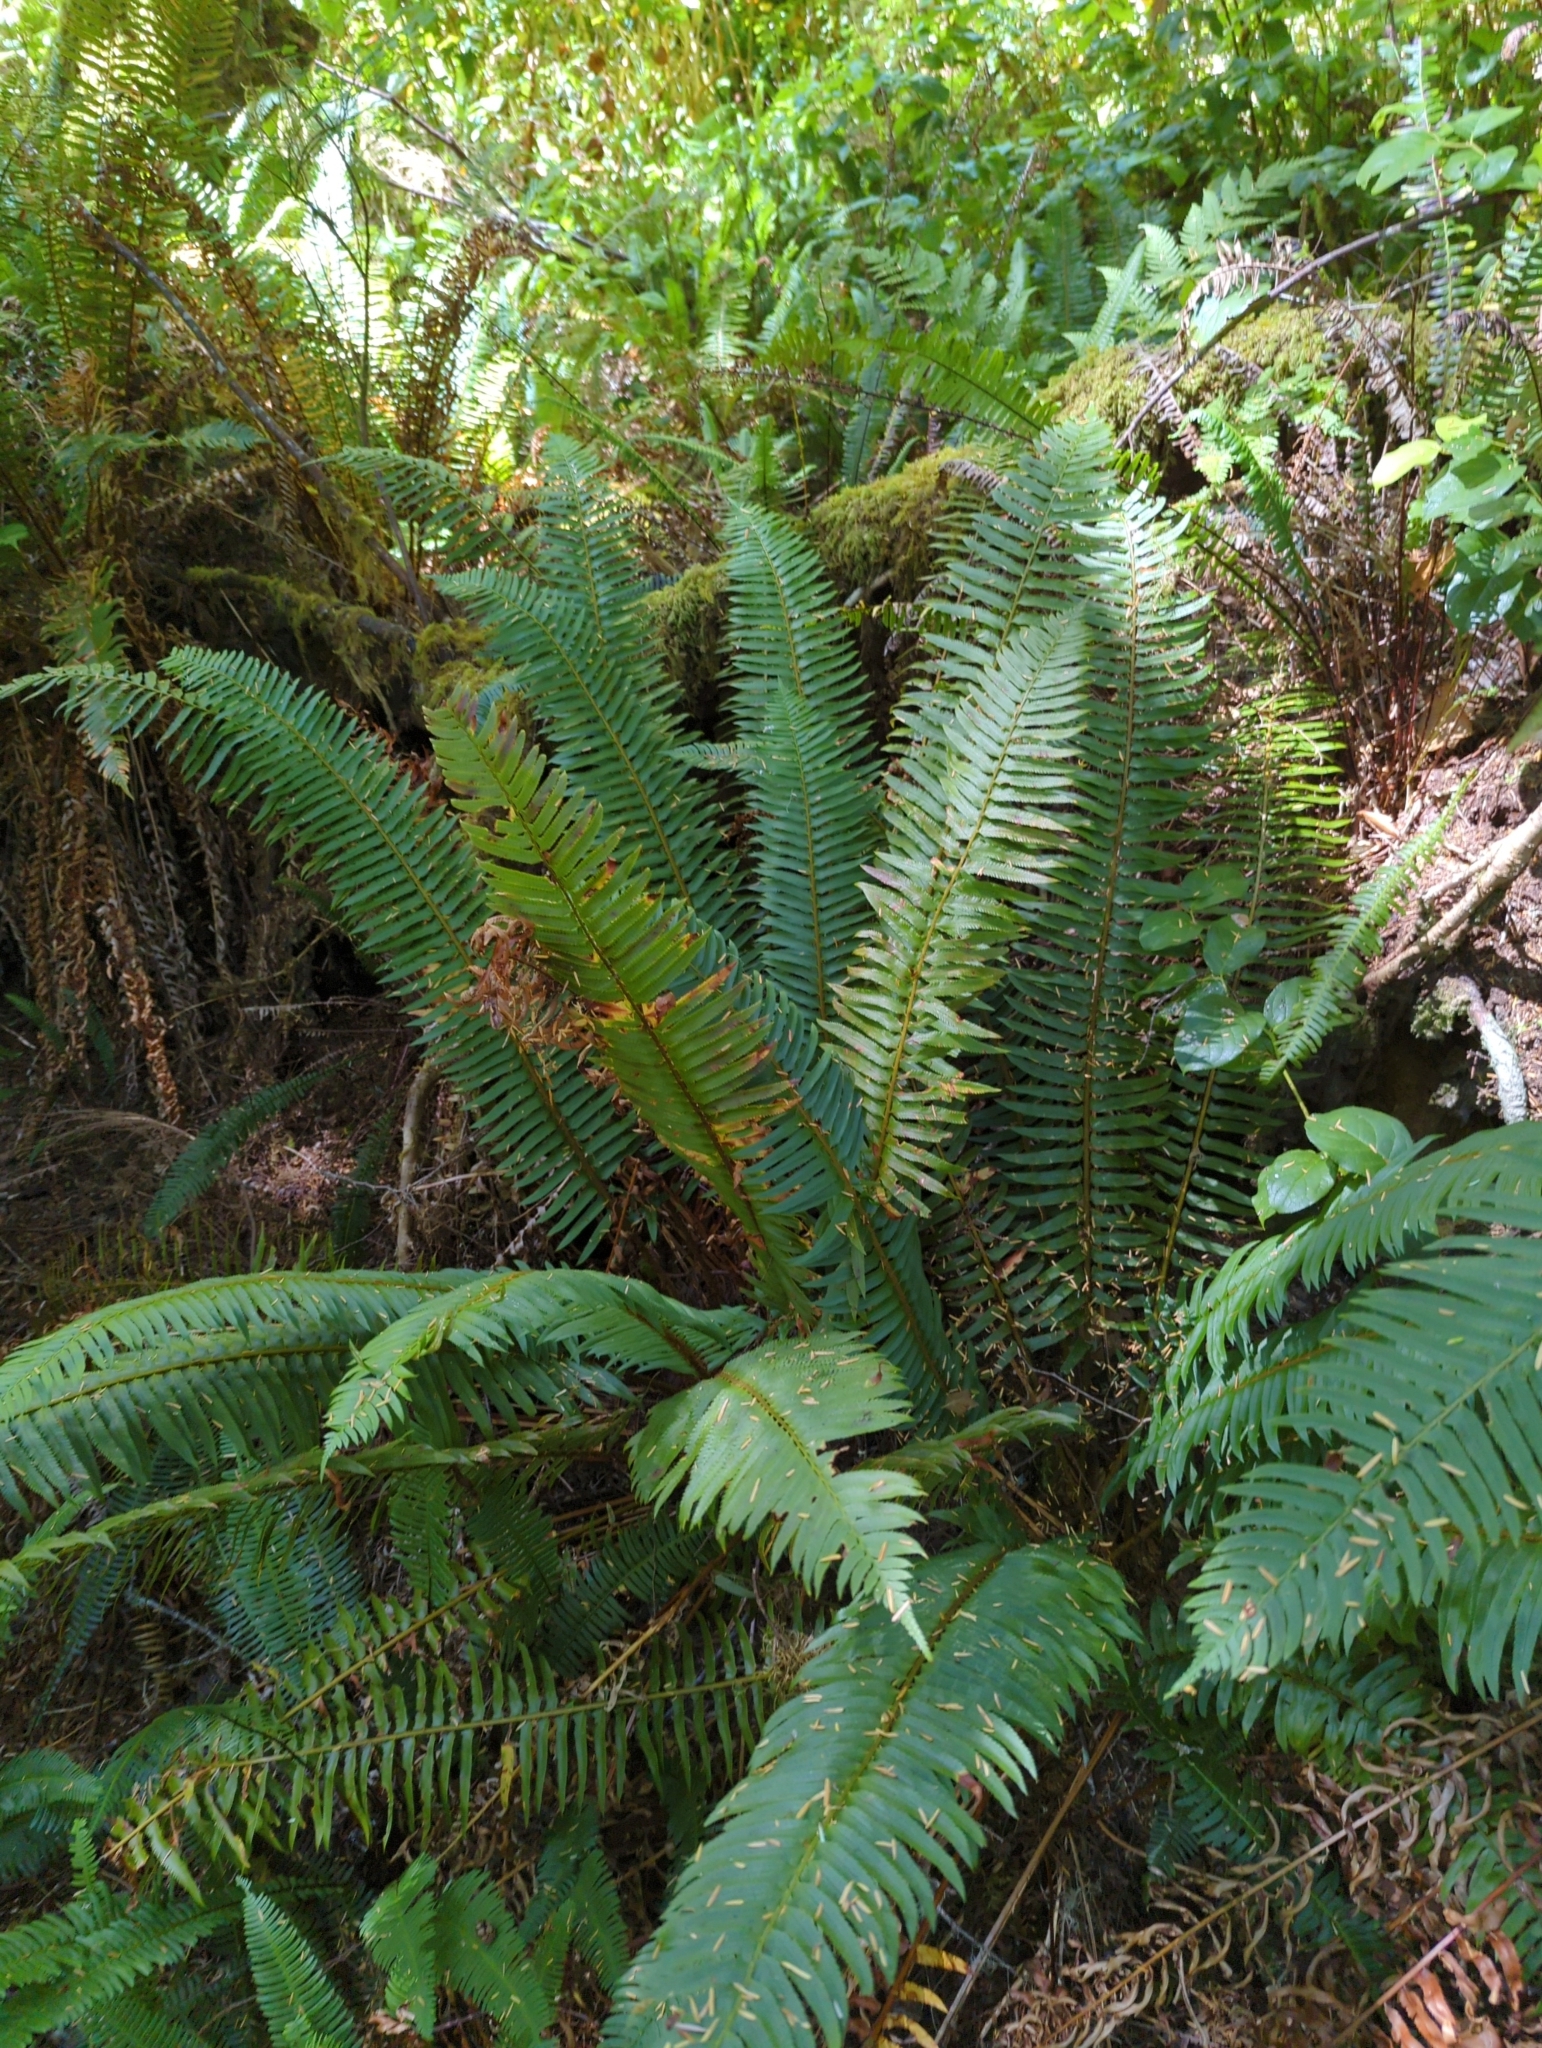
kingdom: Plantae
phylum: Tracheophyta
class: Polypodiopsida
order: Polypodiales
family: Dryopteridaceae
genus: Polystichum
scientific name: Polystichum munitum
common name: Western sword-fern
